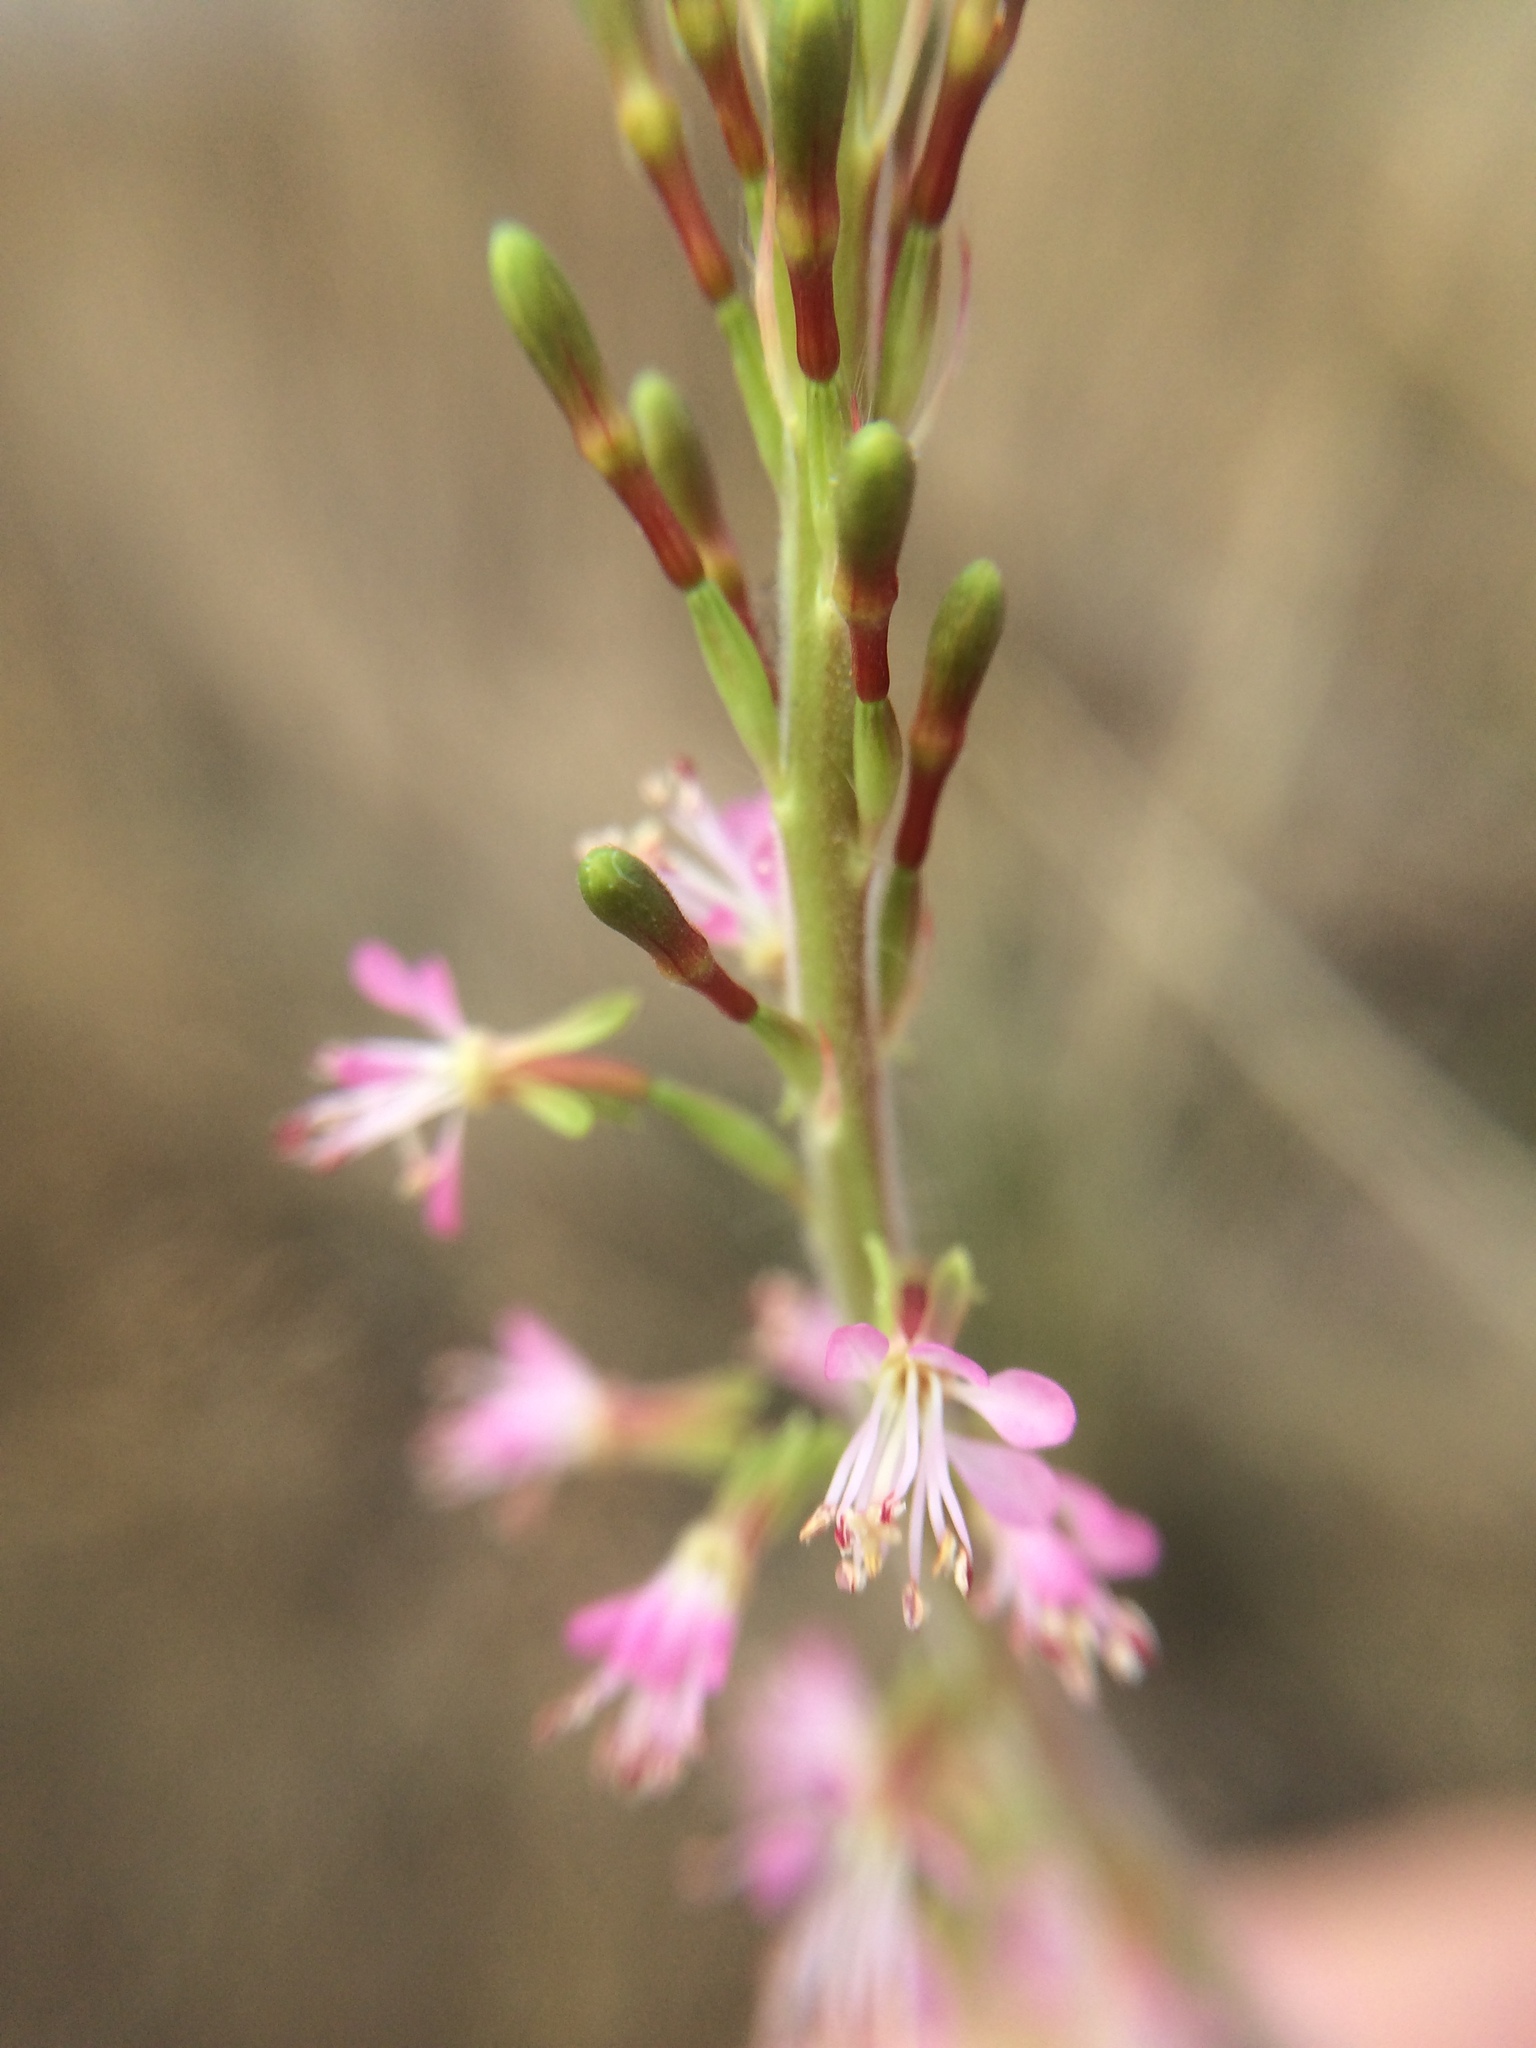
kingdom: Plantae
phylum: Tracheophyta
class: Magnoliopsida
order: Myrtales
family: Onagraceae
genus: Oenothera
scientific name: Oenothera curtiflora
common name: Velvetweed
